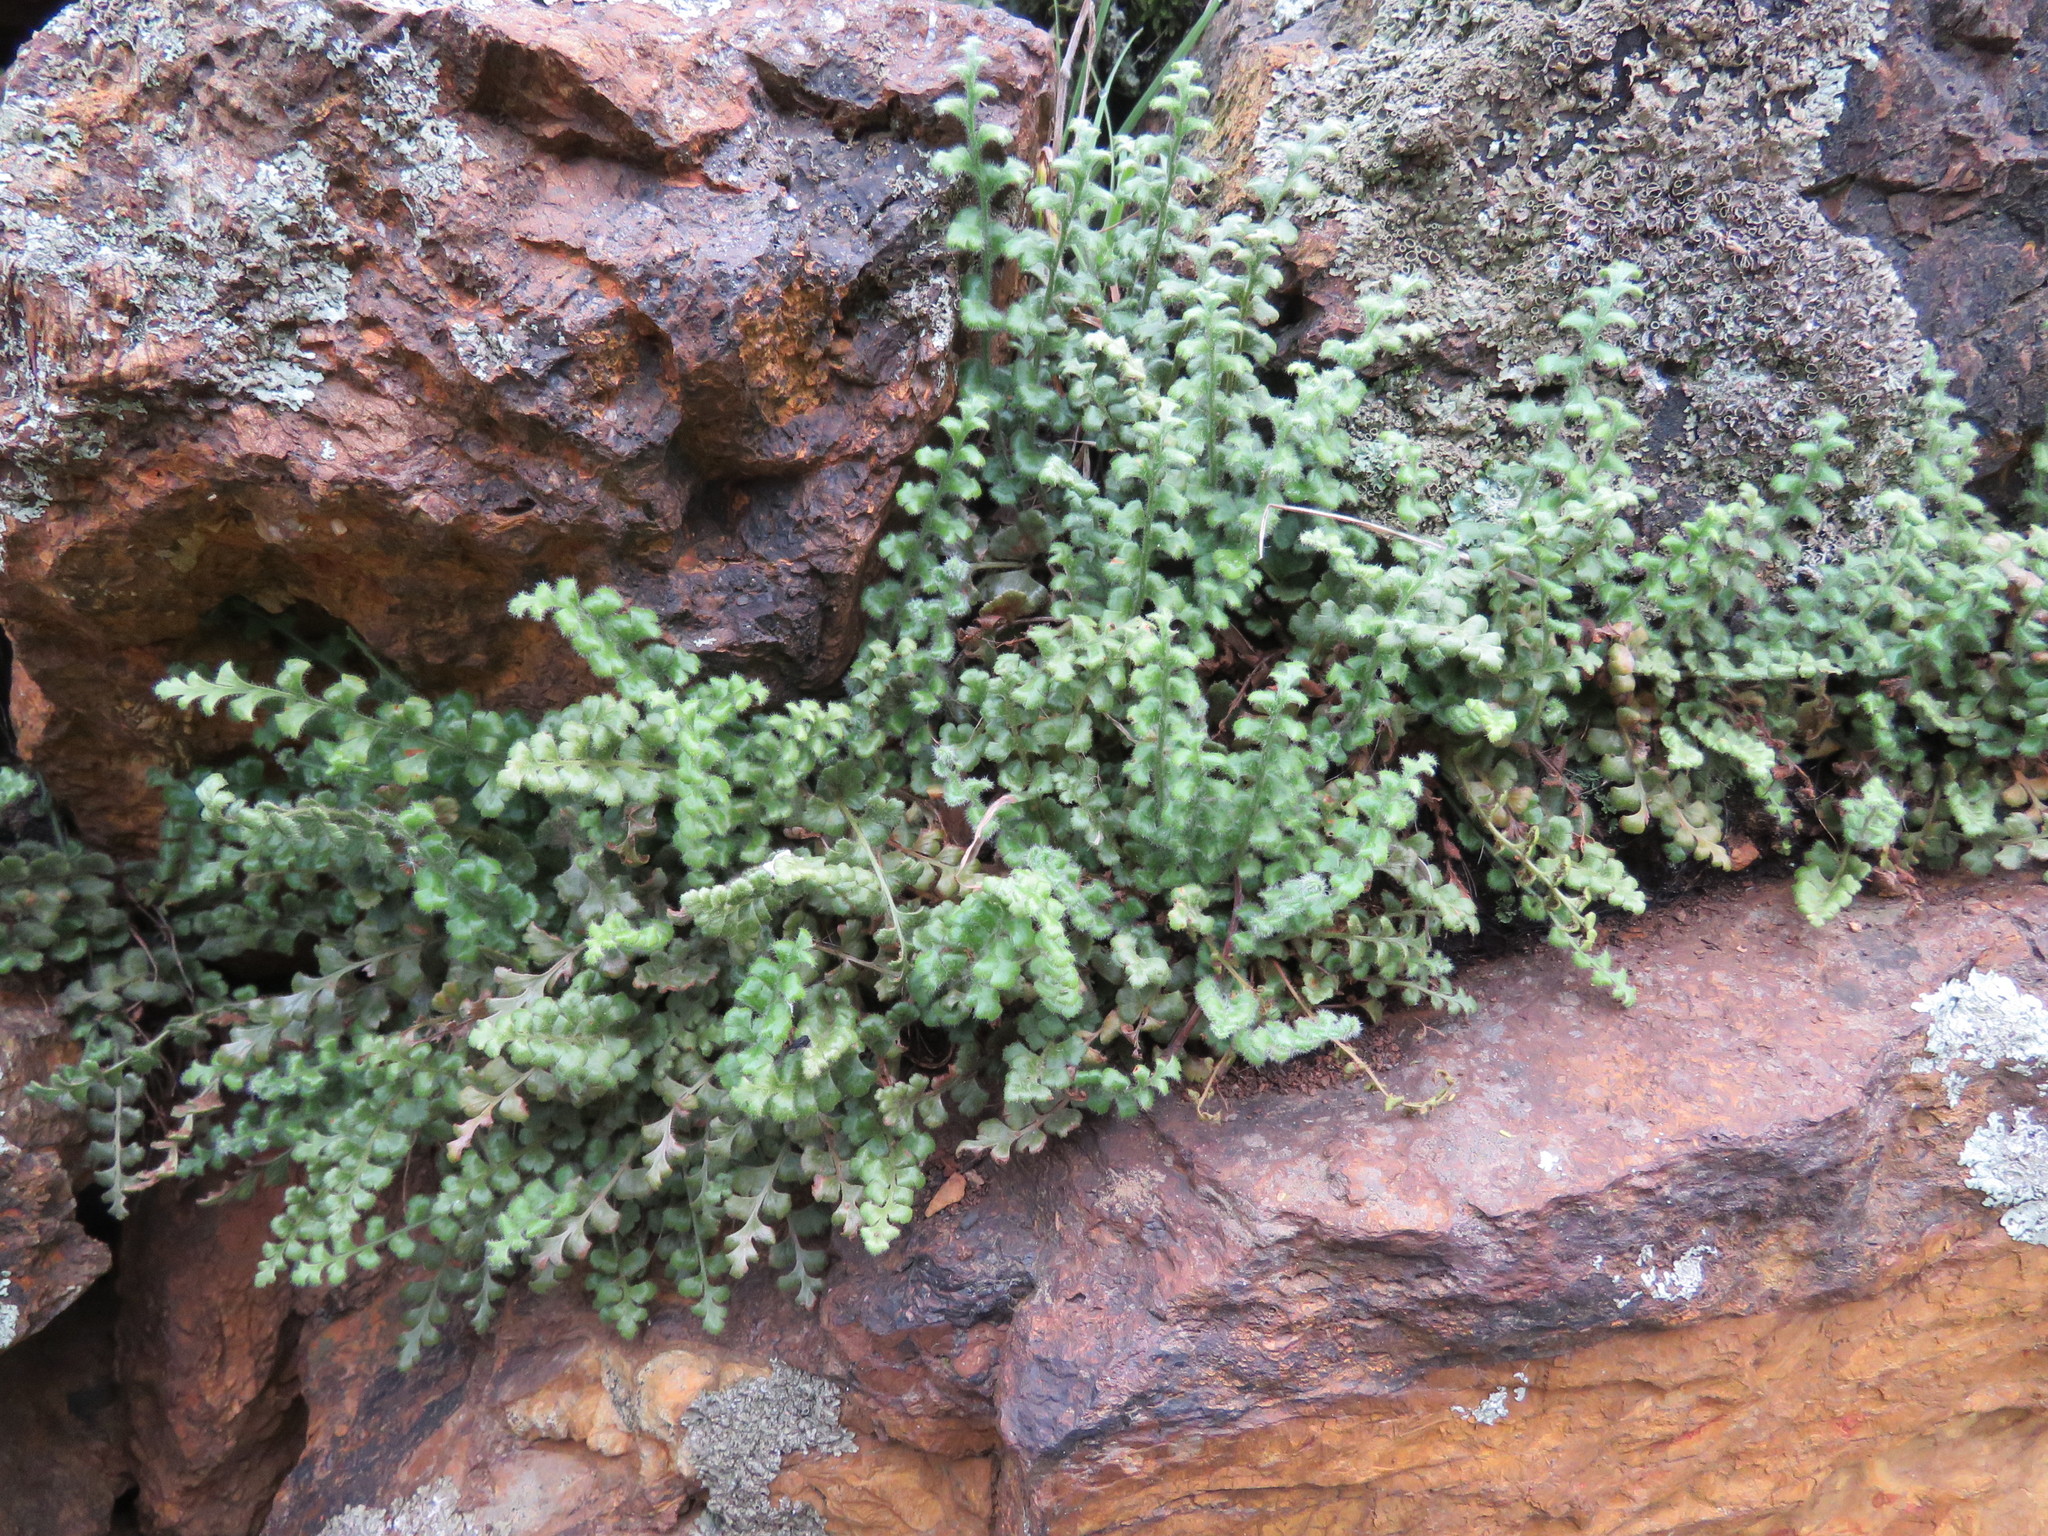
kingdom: Plantae
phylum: Tracheophyta
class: Polypodiopsida
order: Polypodiales
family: Aspleniaceae
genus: Asplenium
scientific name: Asplenium subglandulosum
